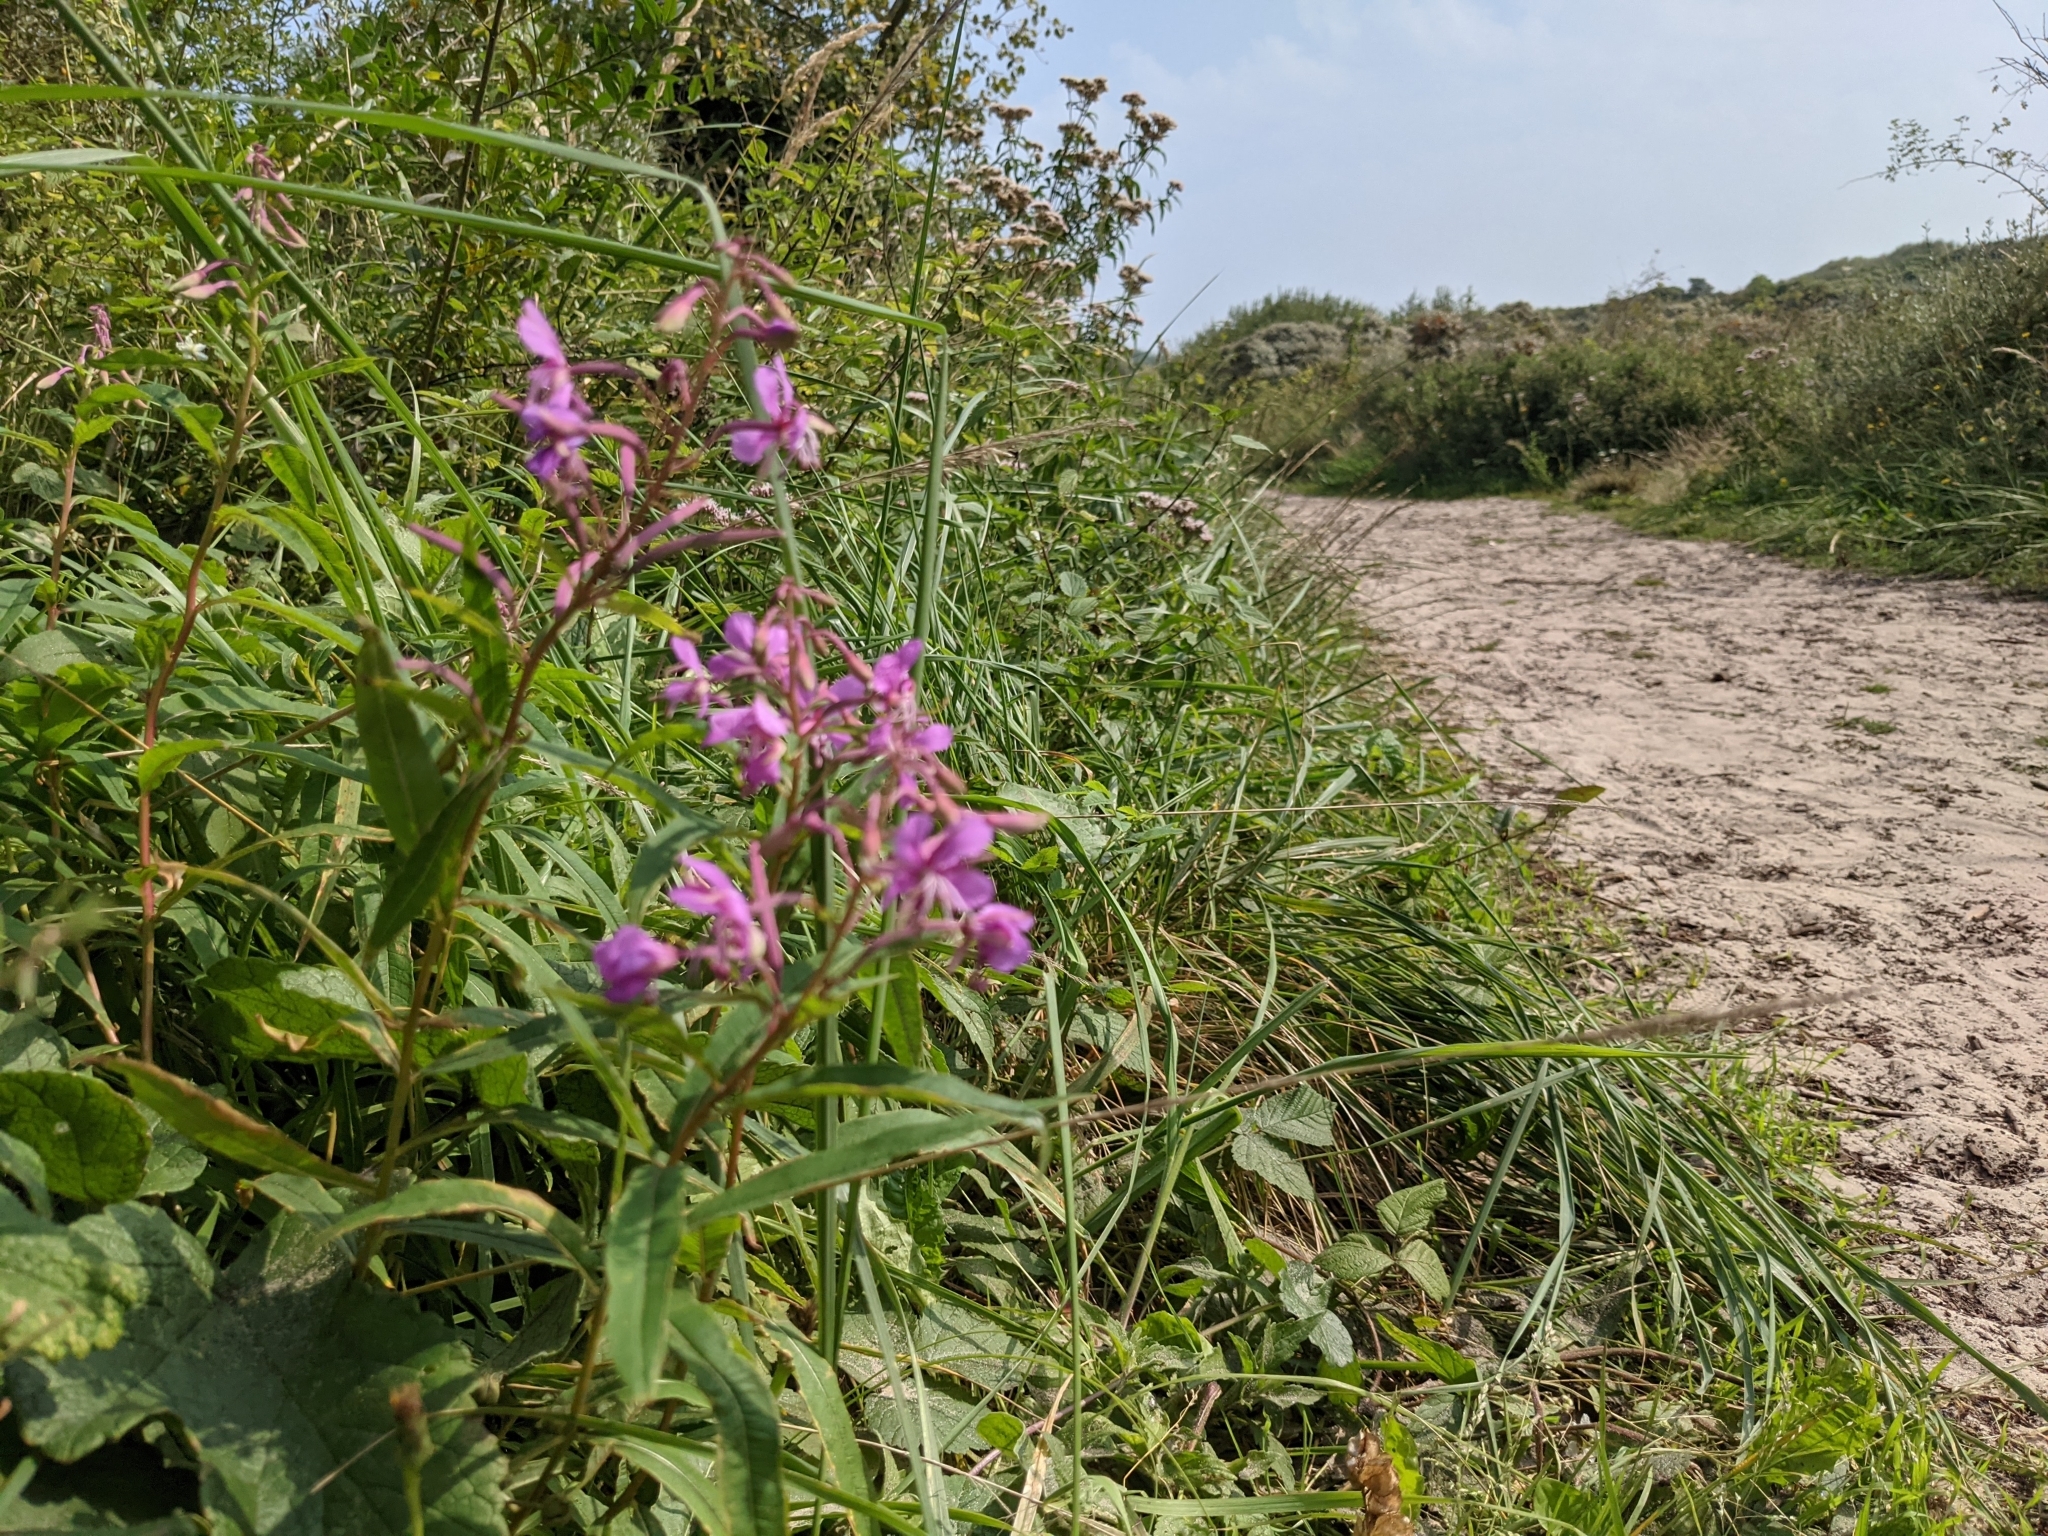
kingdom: Plantae
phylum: Tracheophyta
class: Magnoliopsida
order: Myrtales
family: Onagraceae
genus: Chamaenerion
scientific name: Chamaenerion angustifolium
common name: Fireweed
